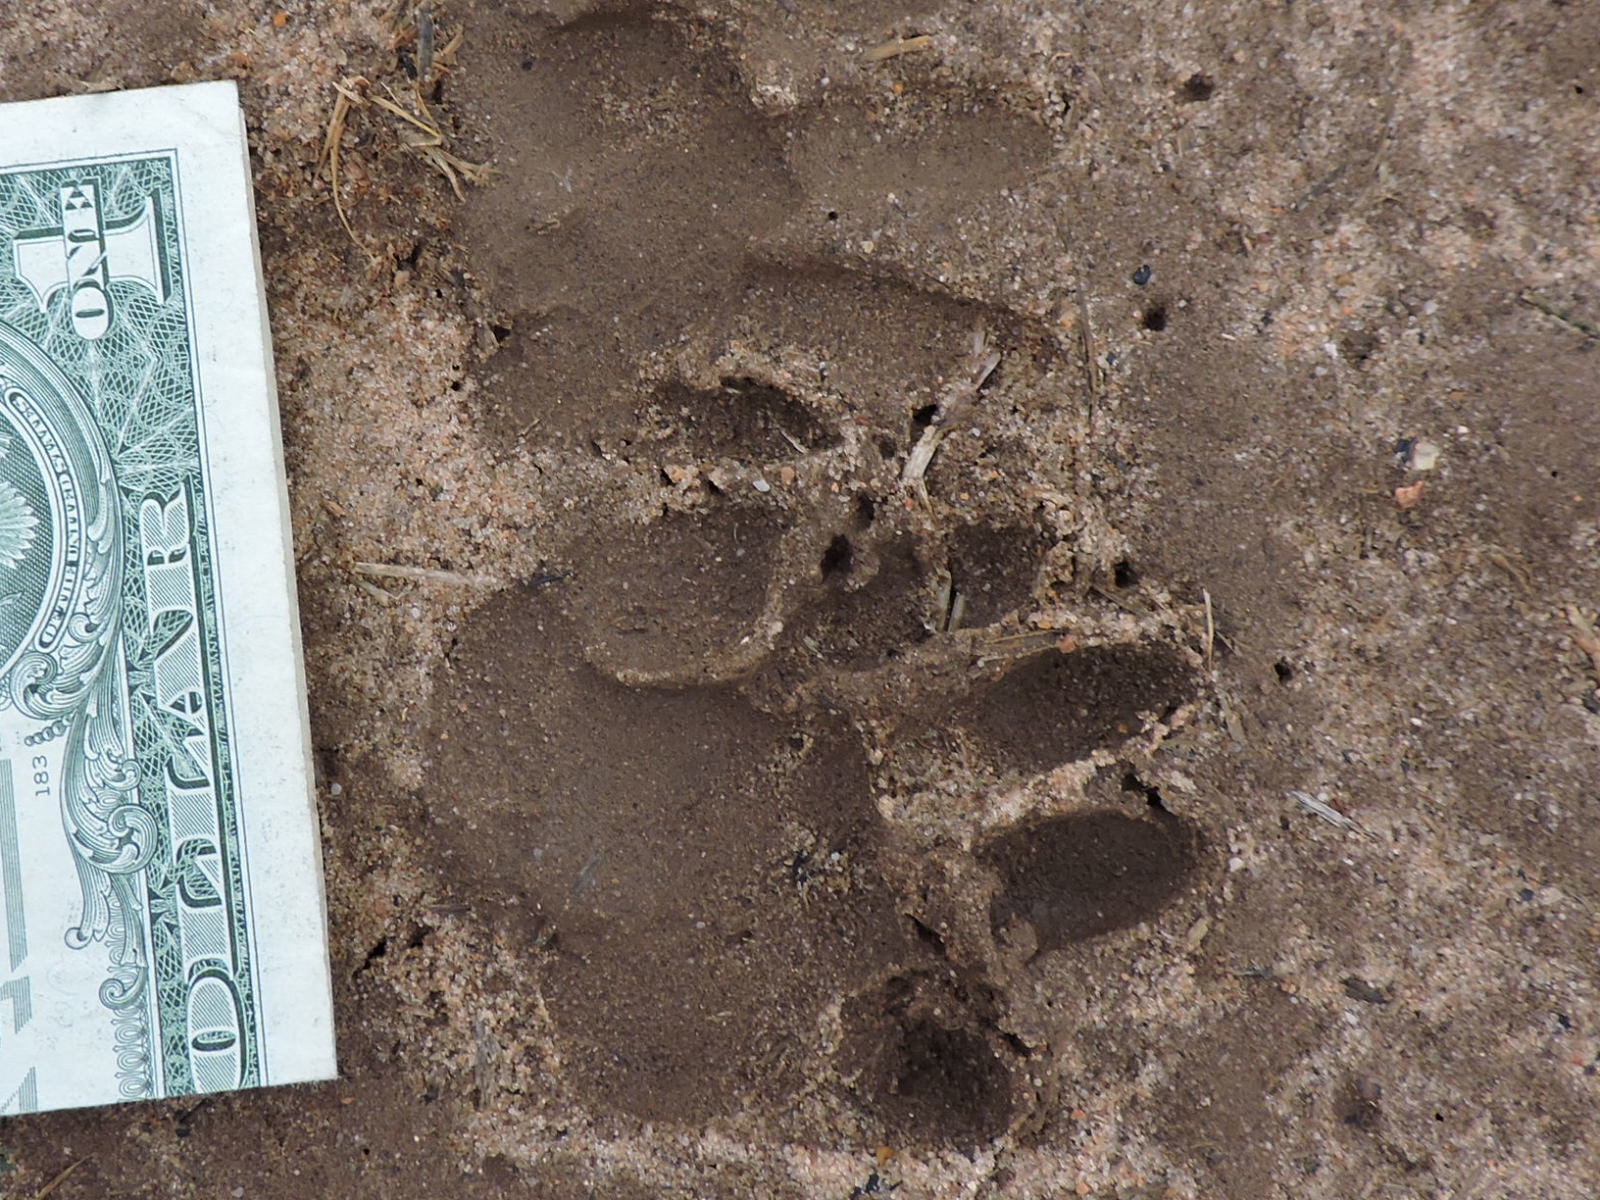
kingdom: Animalia
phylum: Chordata
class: Mammalia
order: Carnivora
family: Procyonidae
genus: Procyon
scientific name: Procyon lotor
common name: Raccoon
